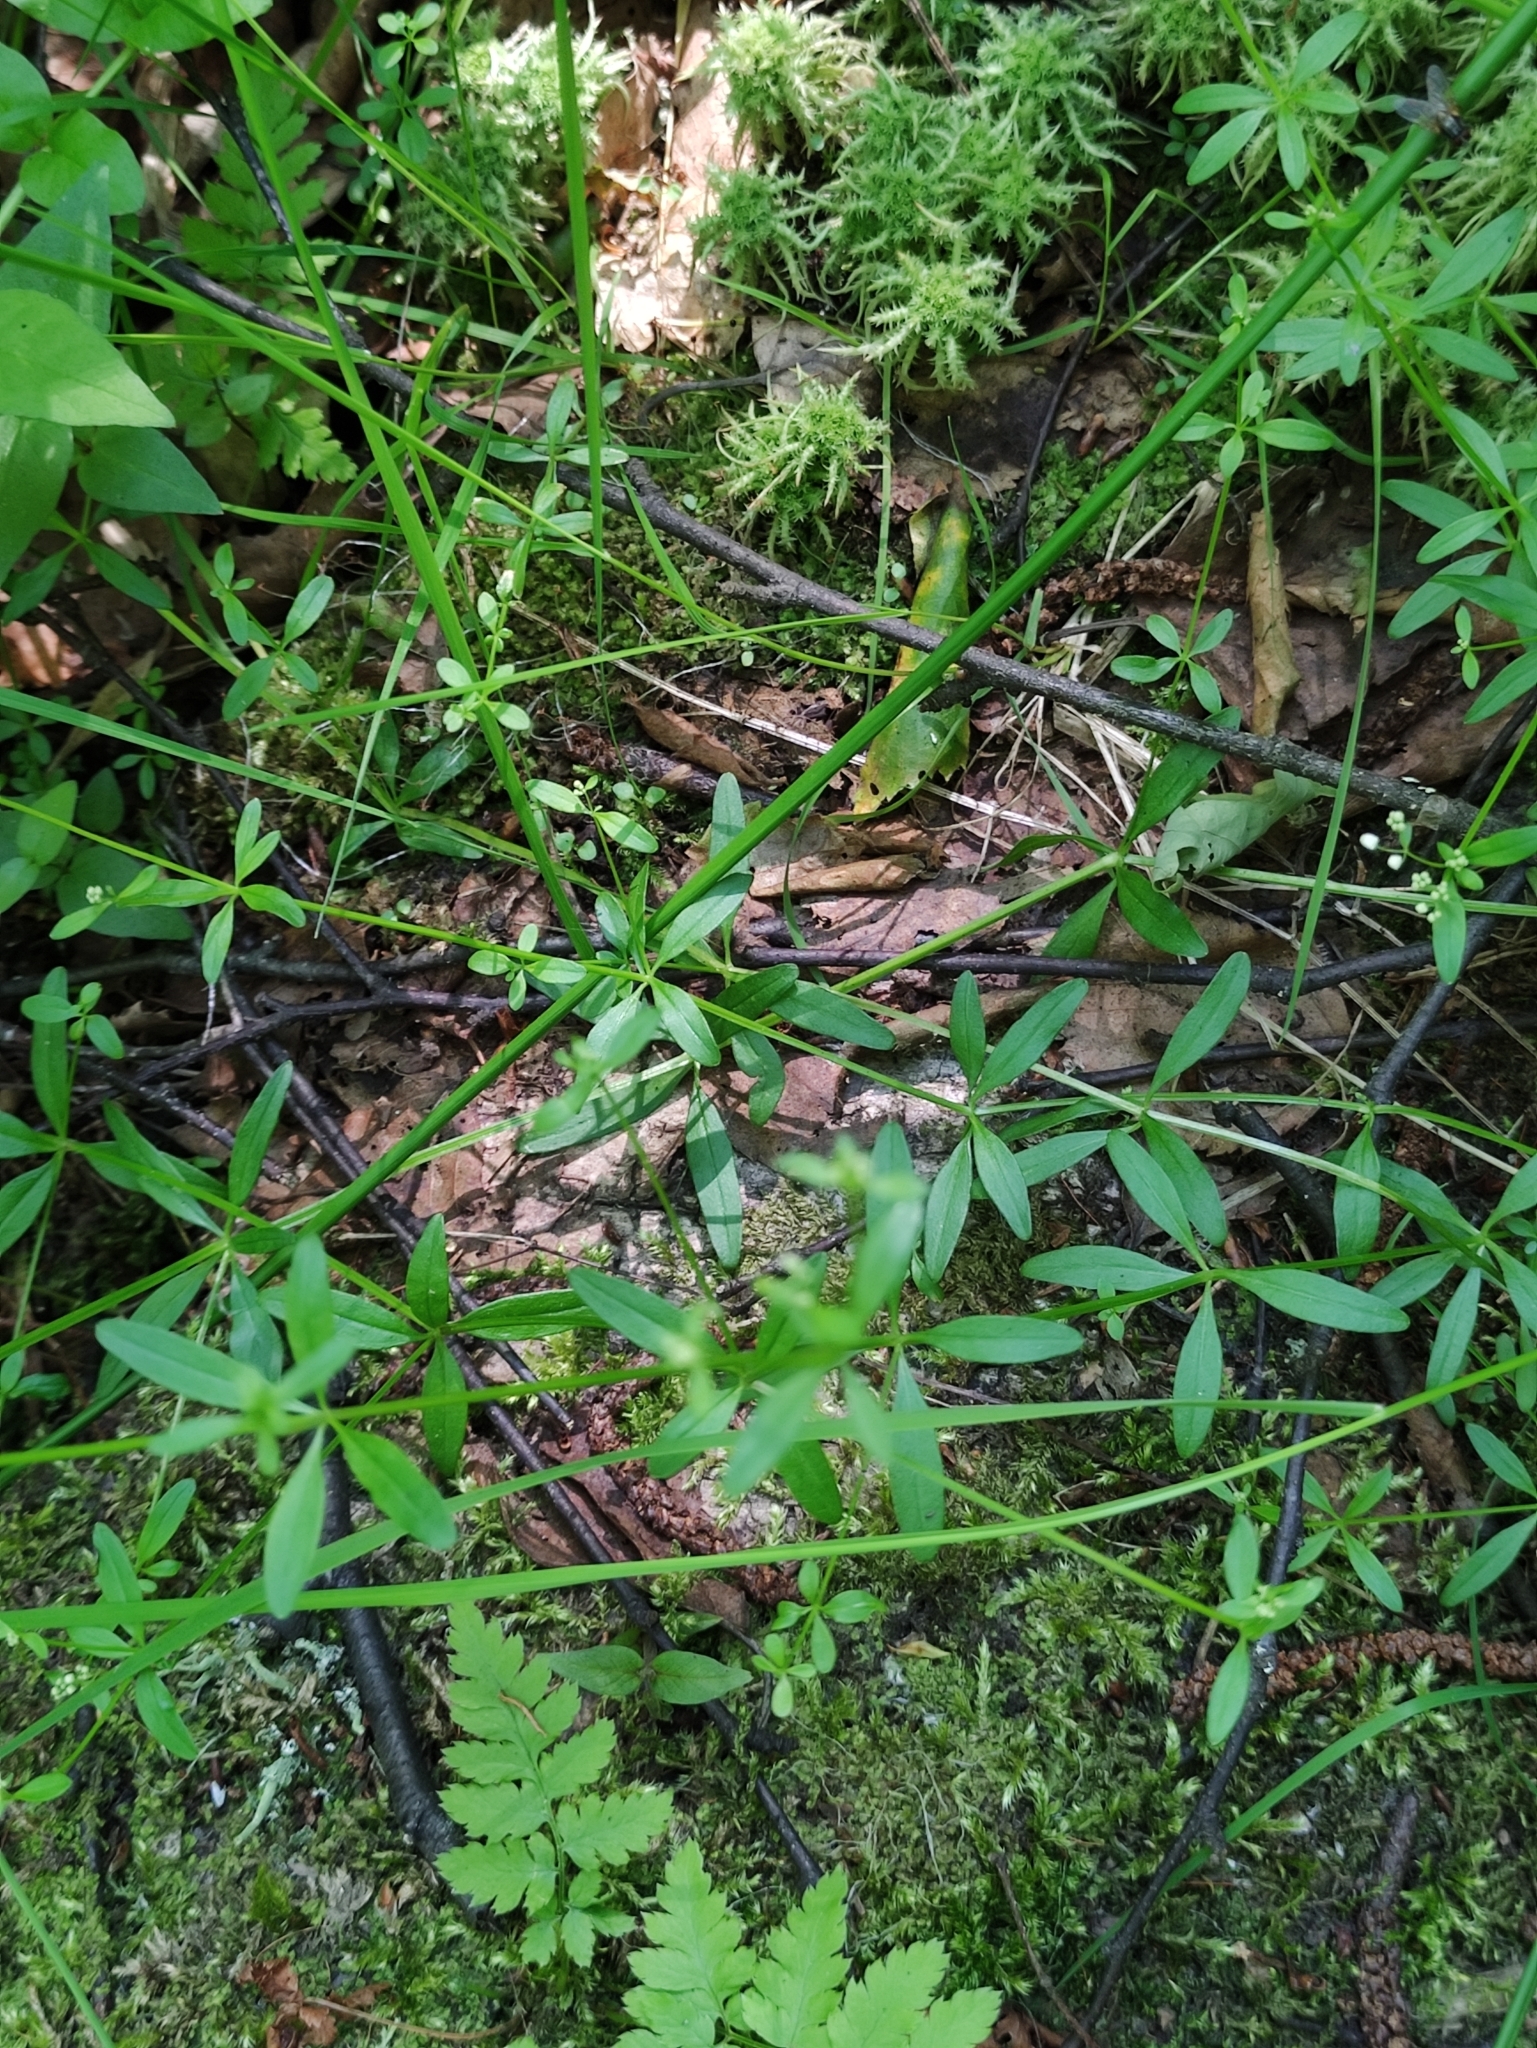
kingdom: Plantae
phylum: Tracheophyta
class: Magnoliopsida
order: Gentianales
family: Rubiaceae
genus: Galium
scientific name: Galium palustre
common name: Common marsh-bedstraw
